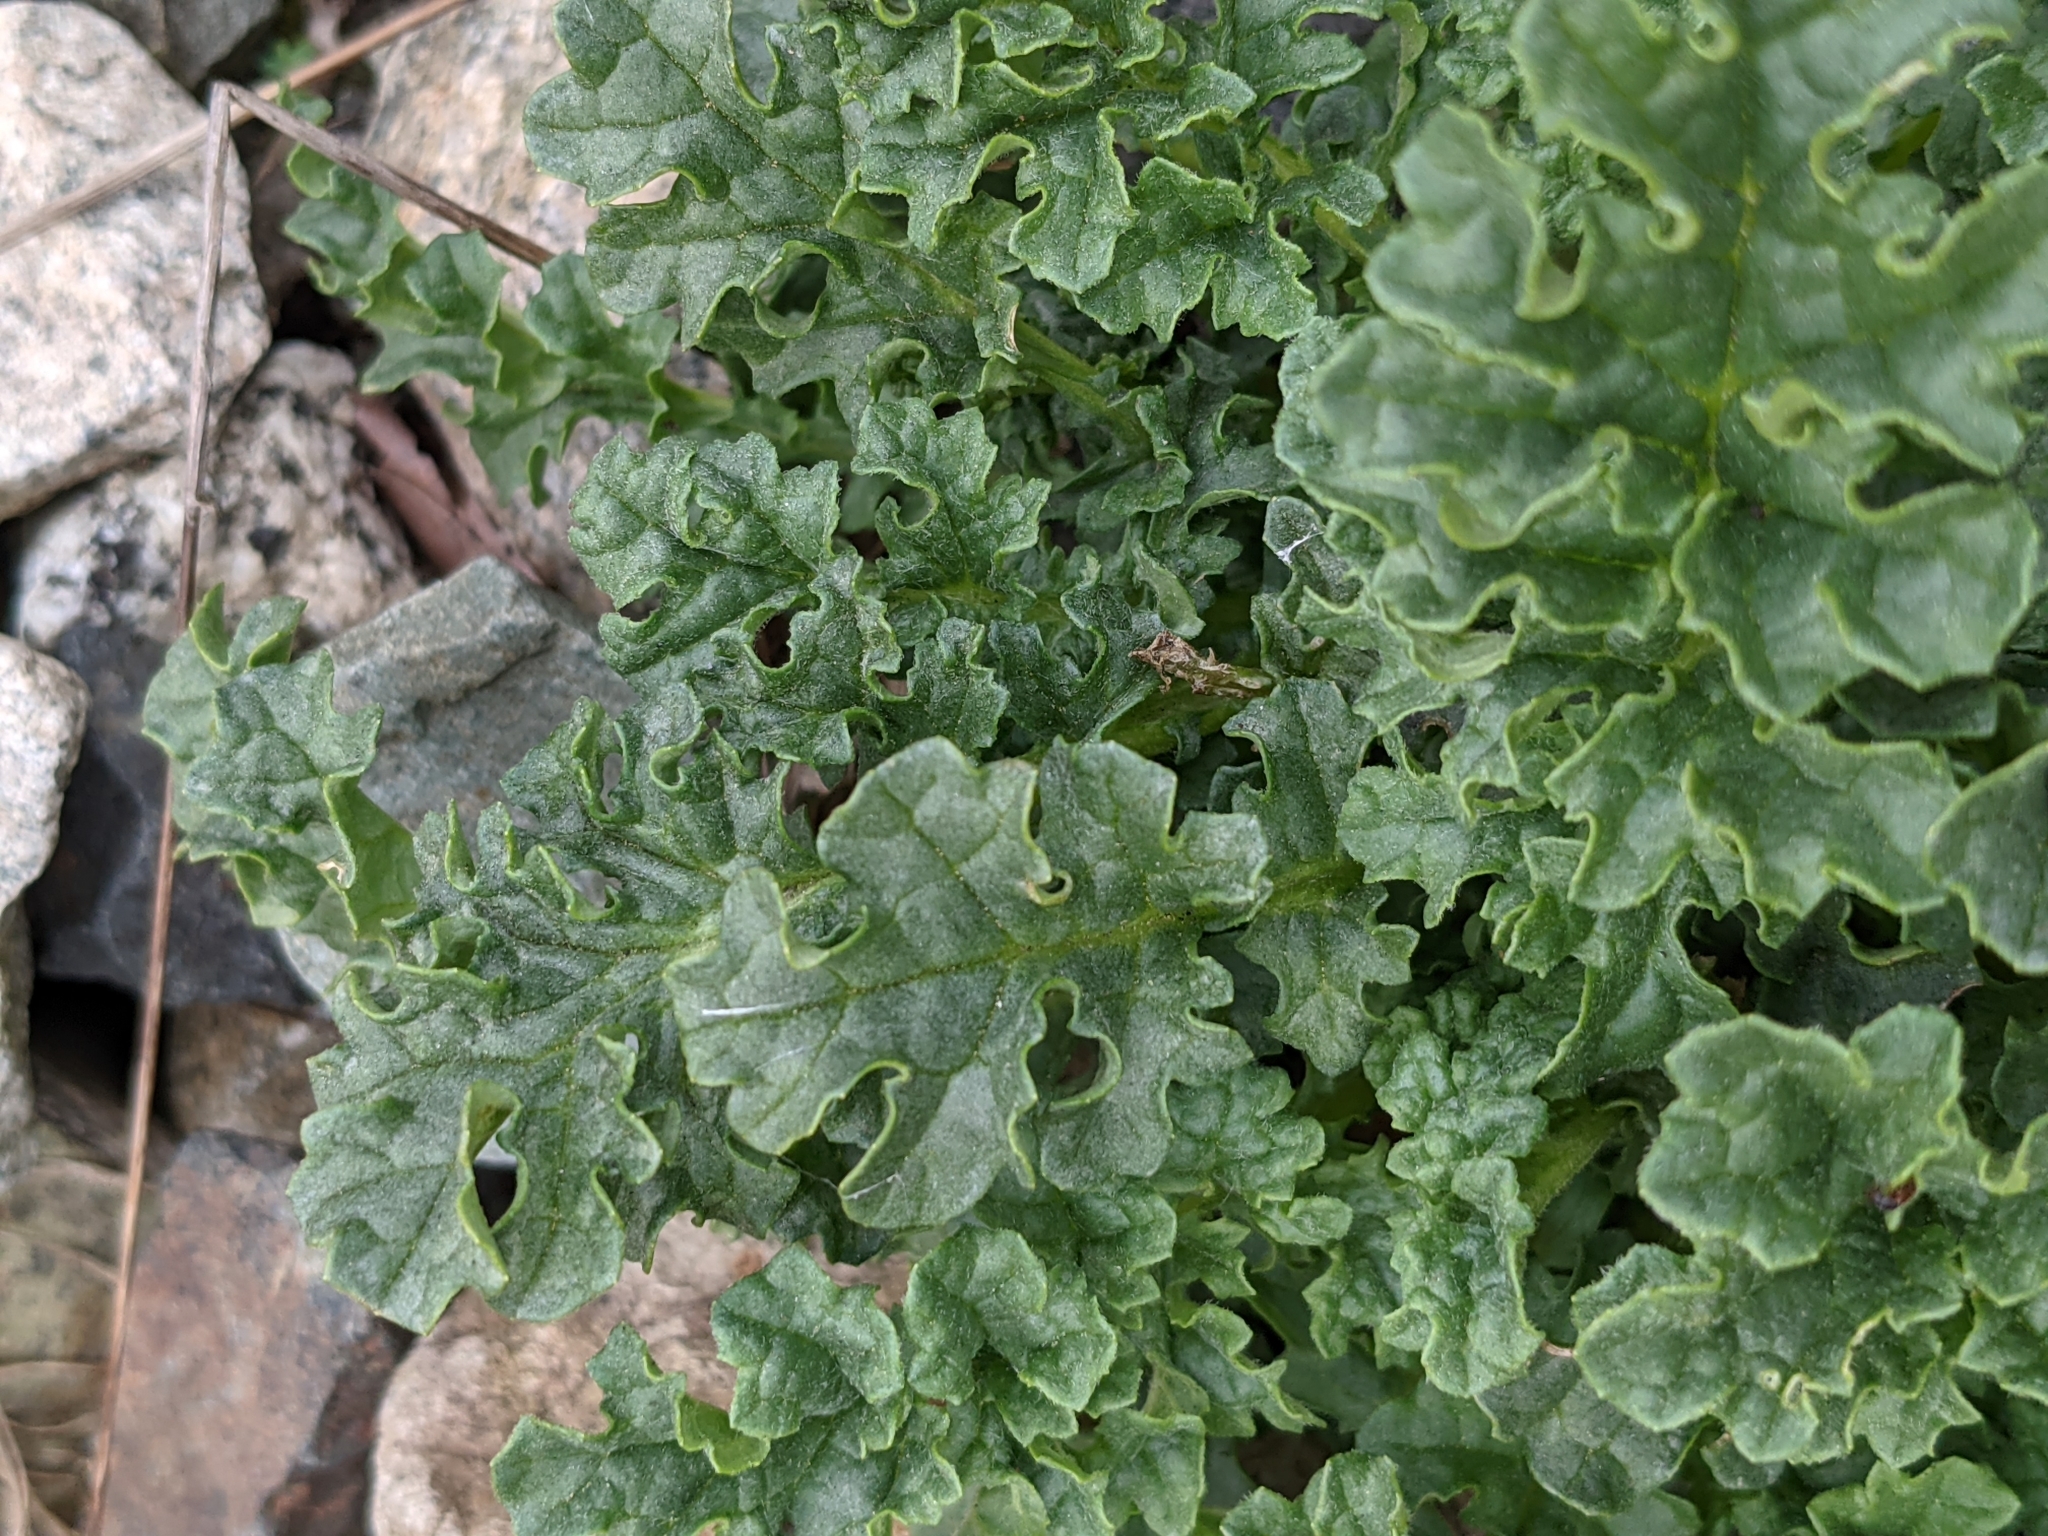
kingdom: Plantae
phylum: Tracheophyta
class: Magnoliopsida
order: Asterales
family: Asteraceae
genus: Jacobaea
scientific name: Jacobaea vulgaris
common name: Stinking willie
